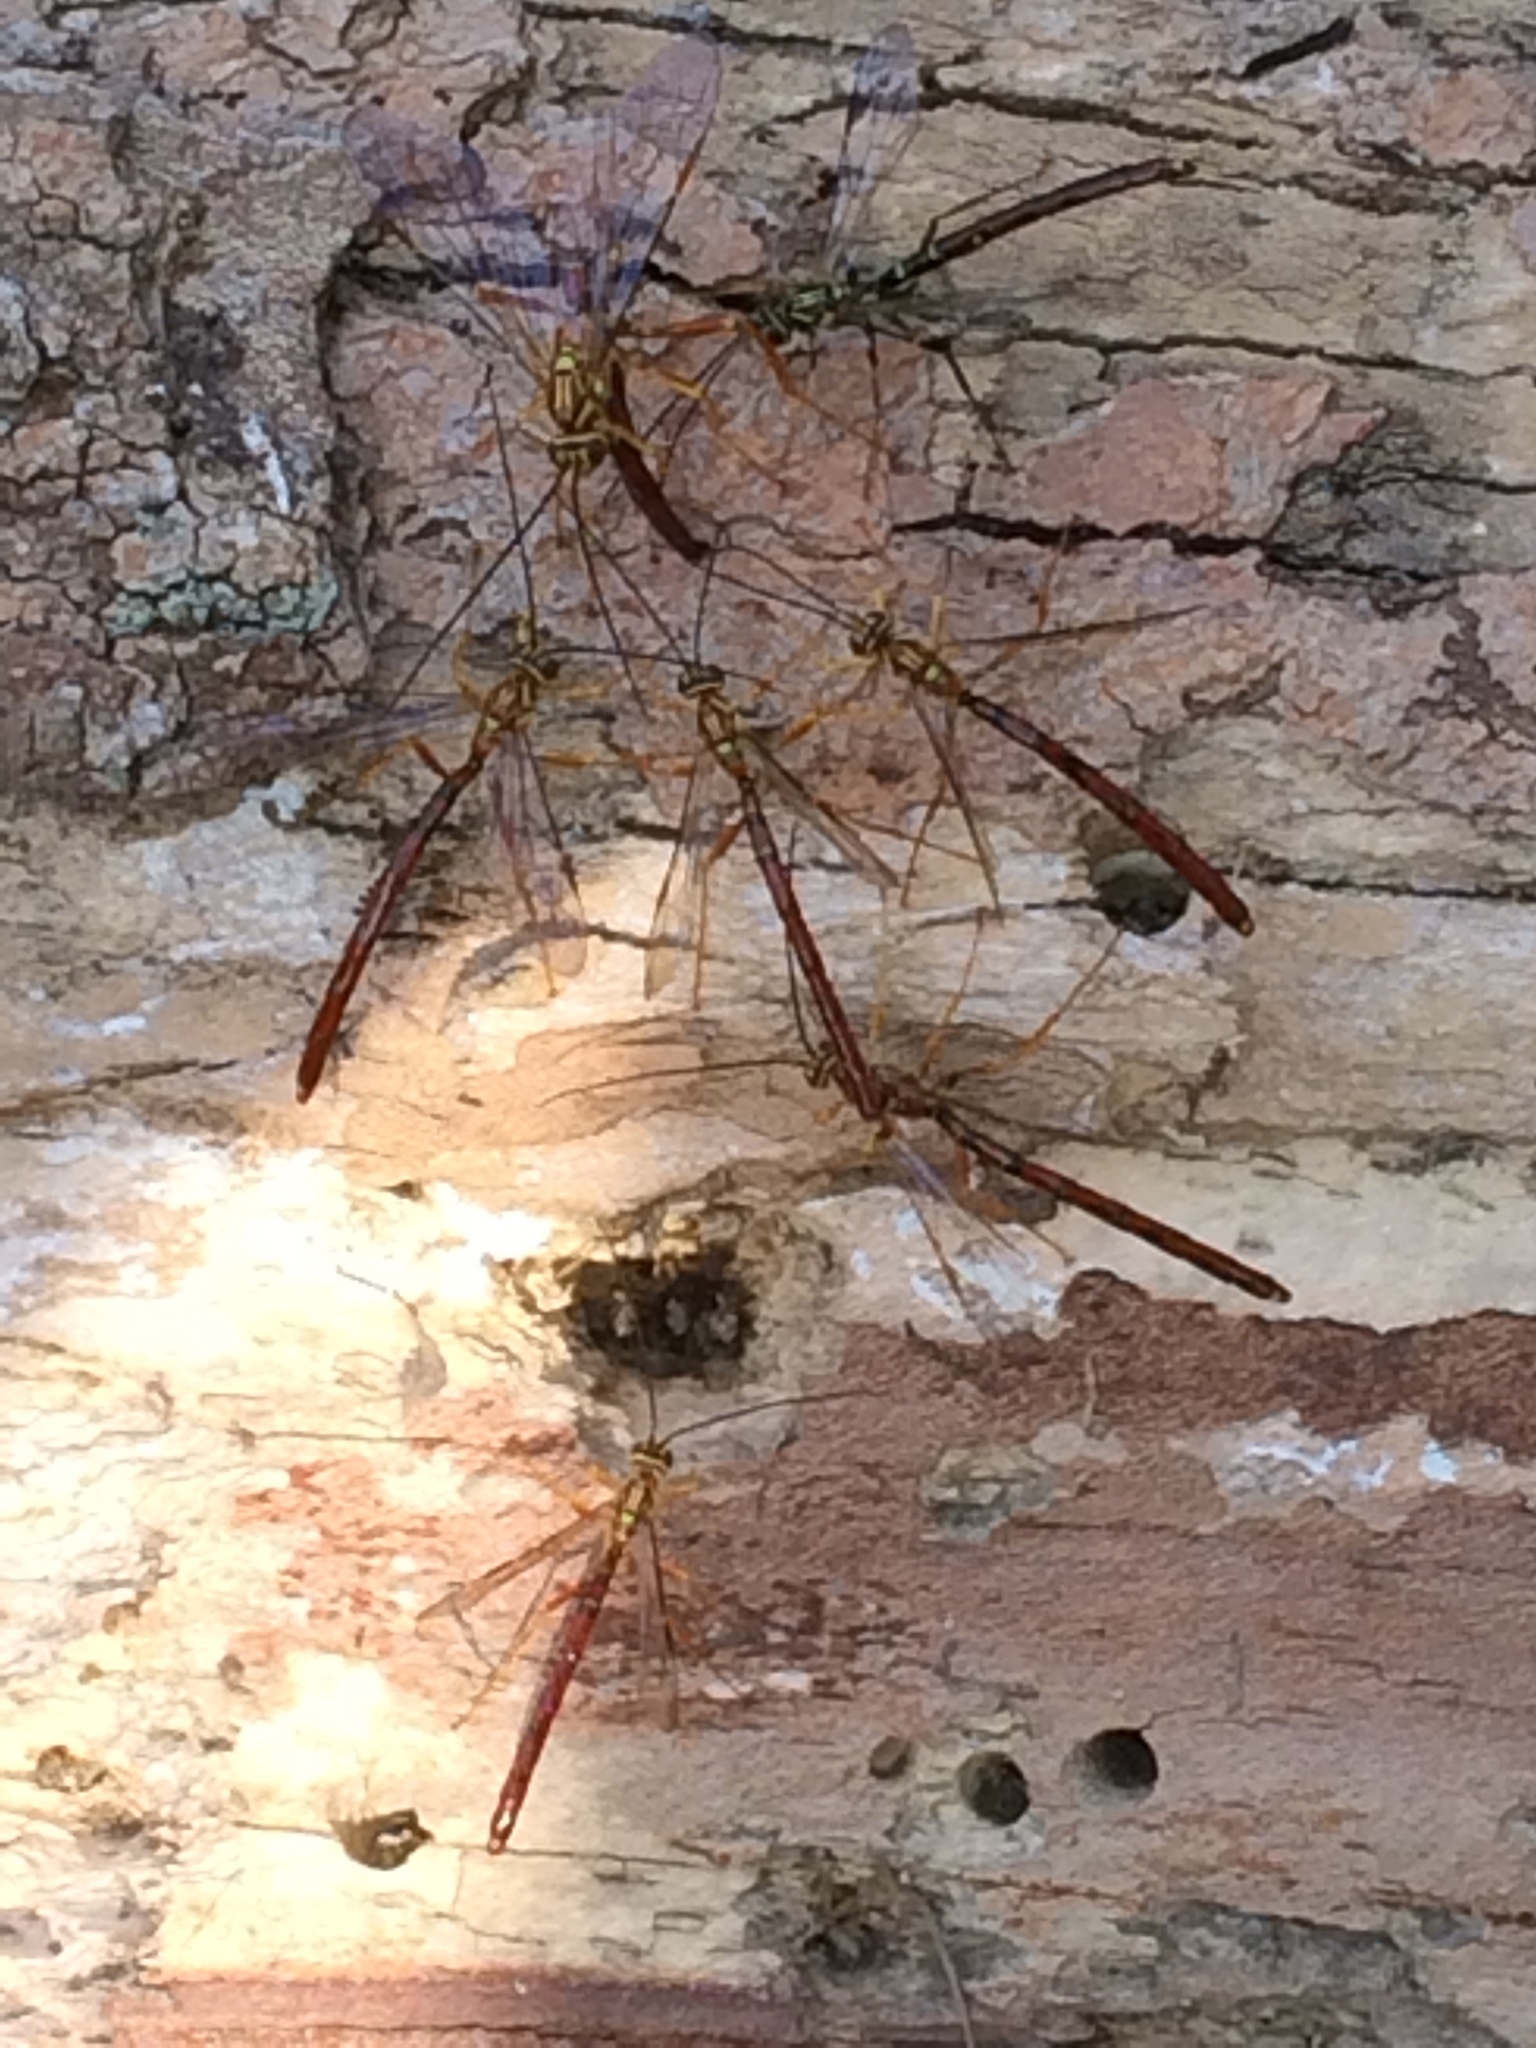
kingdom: Animalia
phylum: Arthropoda
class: Insecta
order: Hymenoptera
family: Ichneumonidae
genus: Megarhyssa
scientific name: Megarhyssa greenei
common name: Greene's giant ichneumonid wasp
